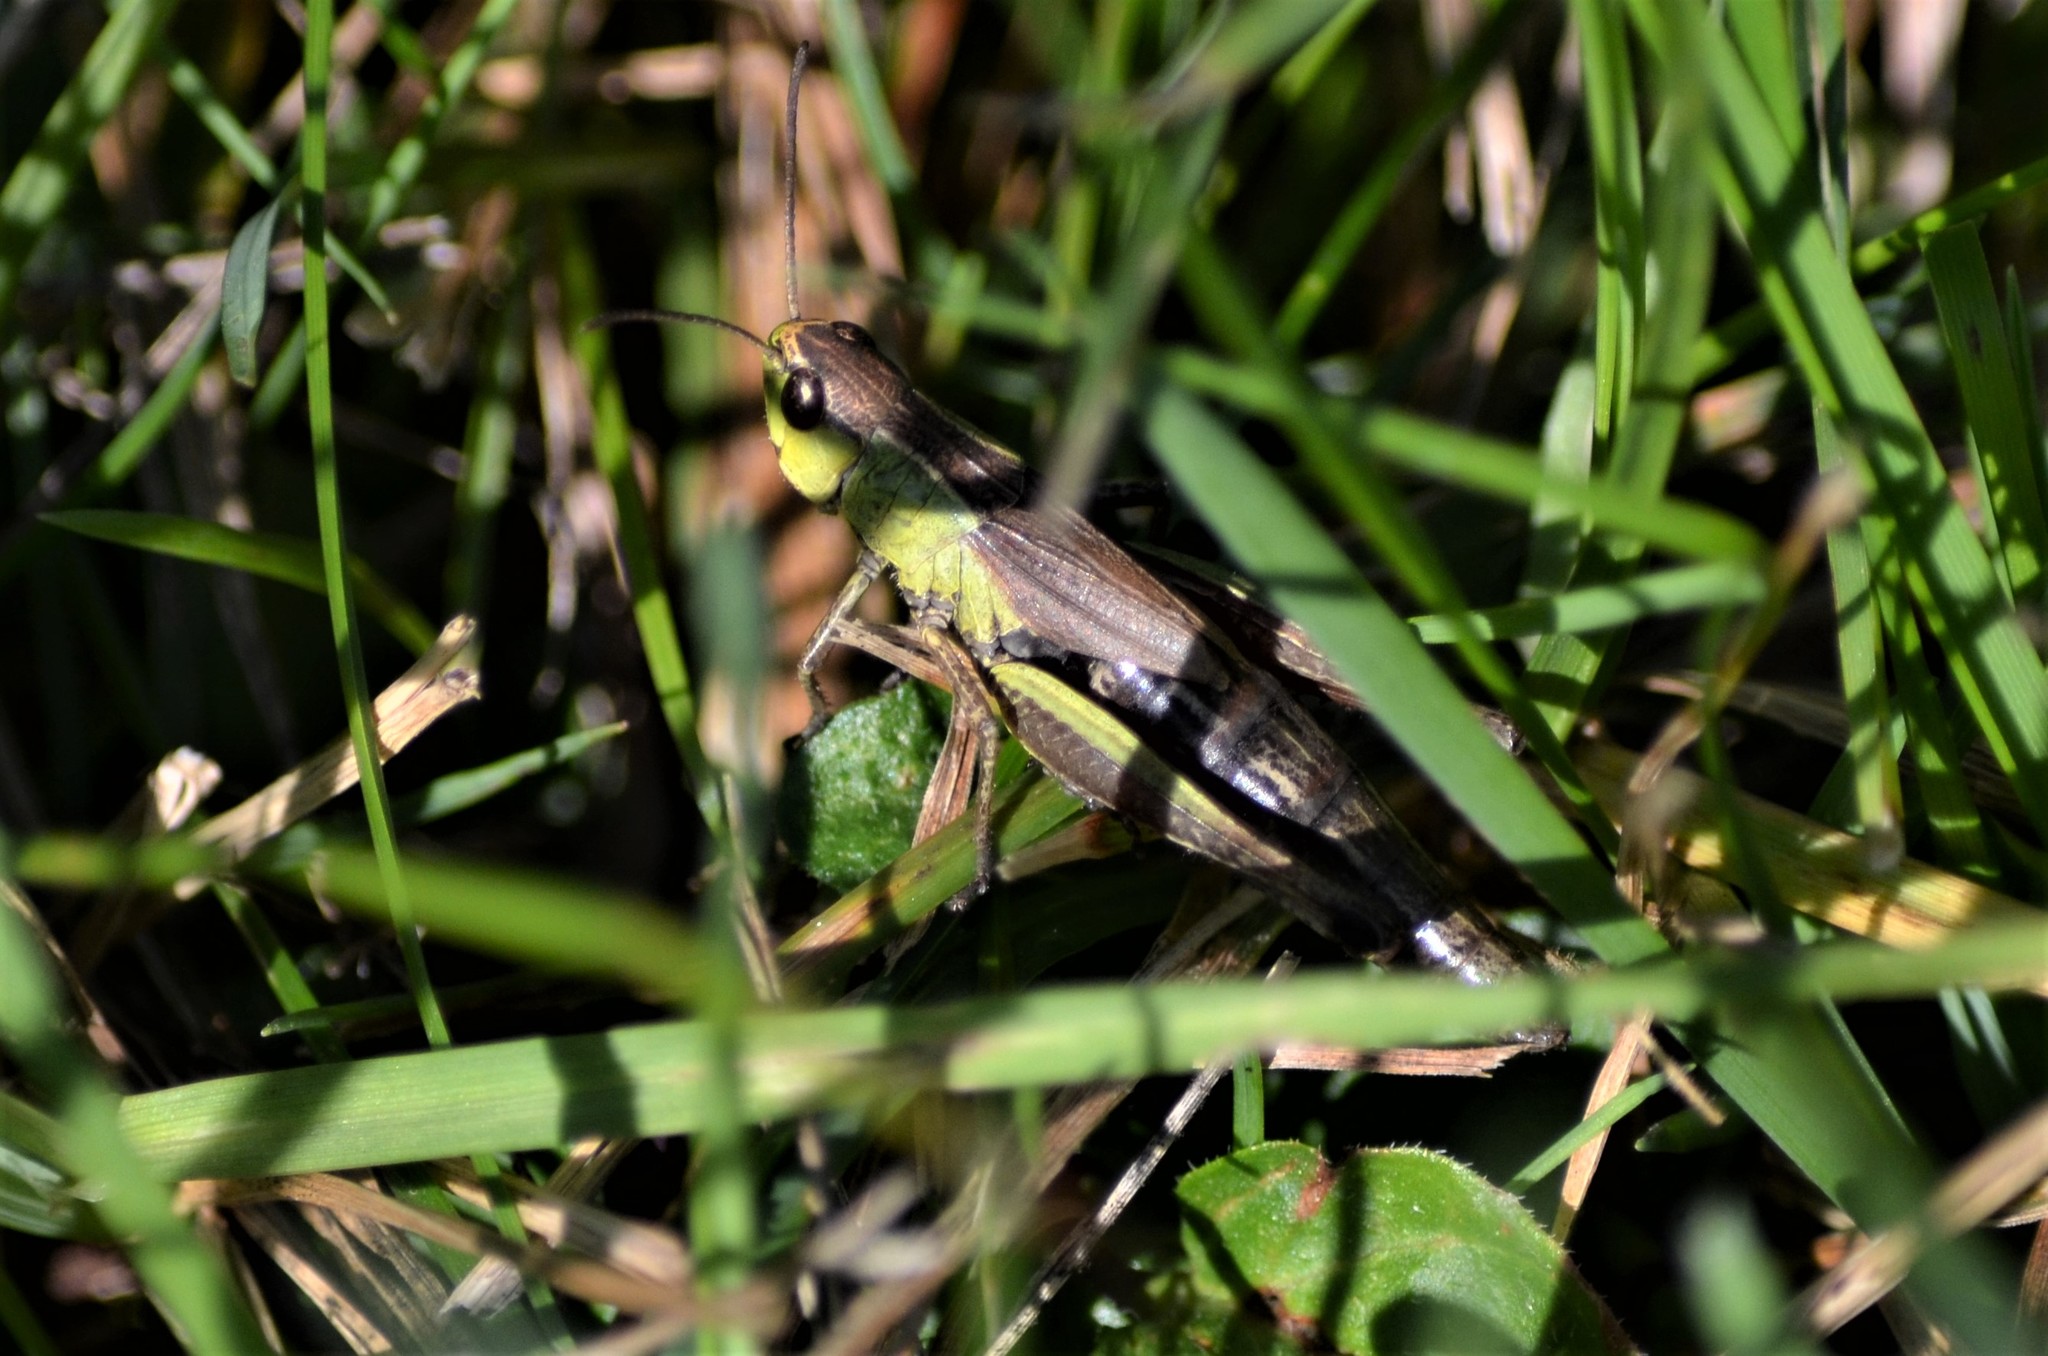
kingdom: Animalia
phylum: Arthropoda
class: Insecta
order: Orthoptera
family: Acrididae
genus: Pseudochorthippus
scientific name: Pseudochorthippus parallelus
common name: Meadow grasshopper
